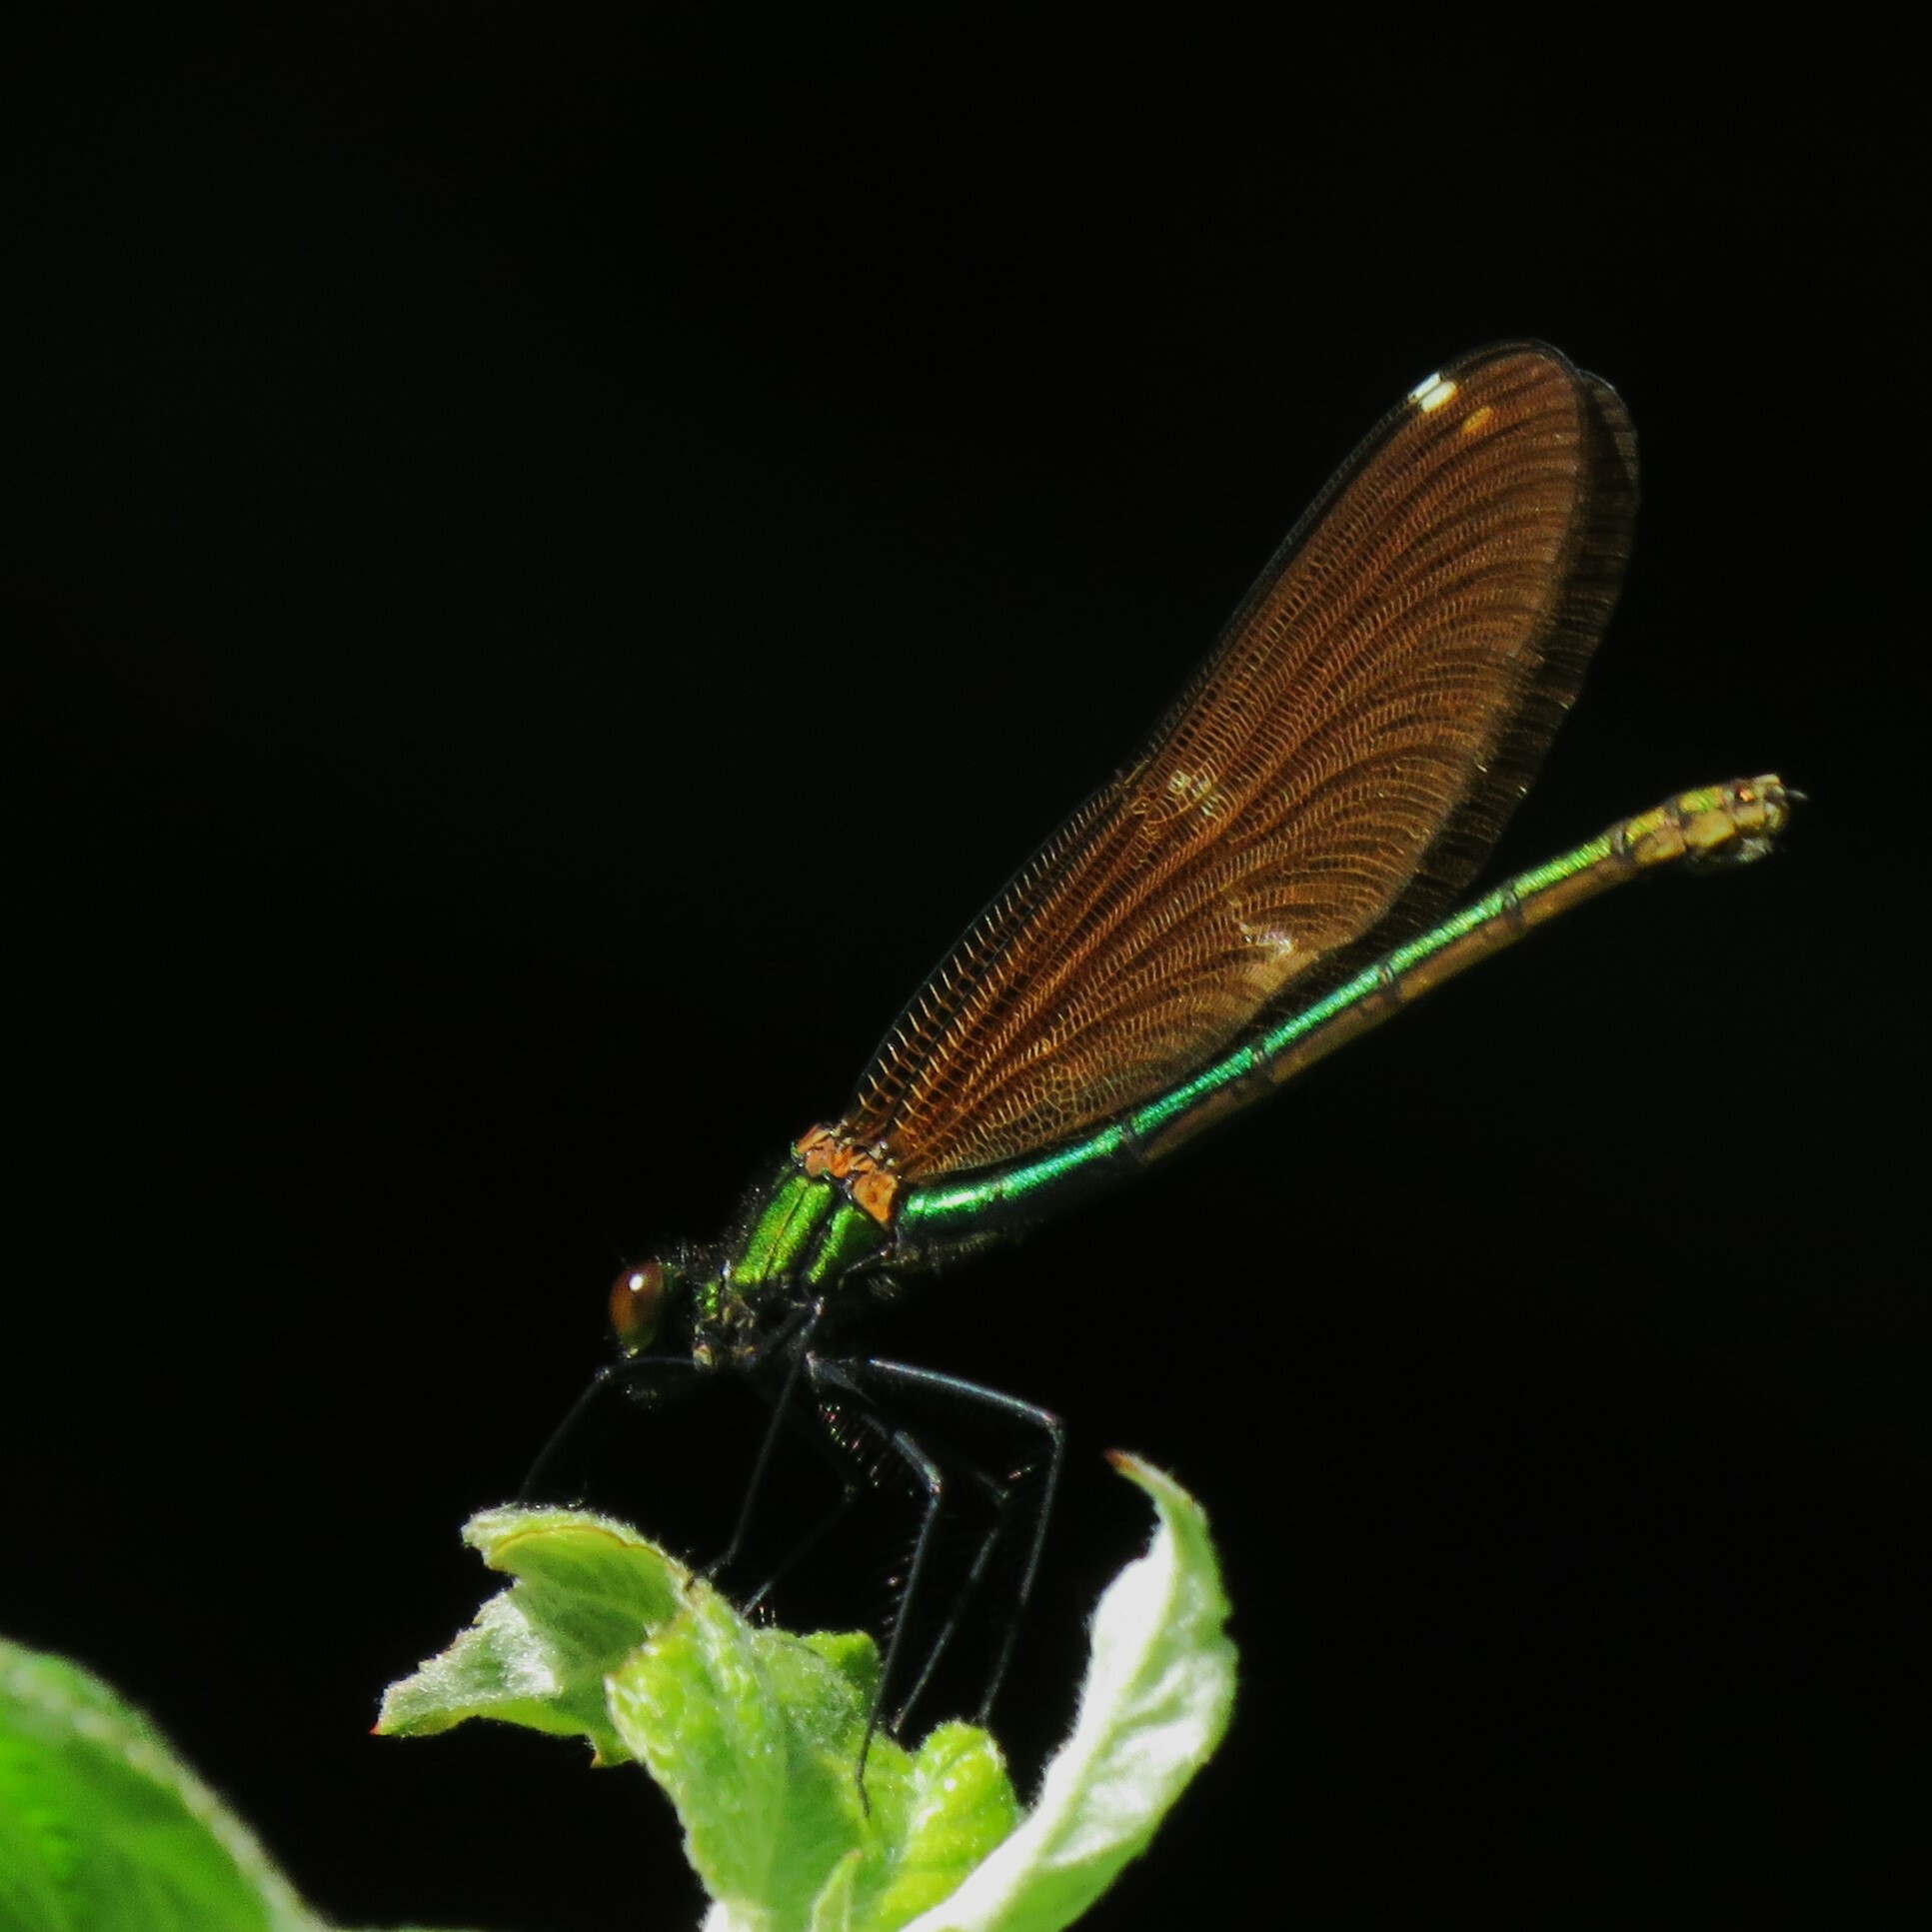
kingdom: Animalia
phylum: Arthropoda
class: Insecta
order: Odonata
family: Calopterygidae
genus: Calopteryx
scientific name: Calopteryx virgo
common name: Beautiful demoiselle
